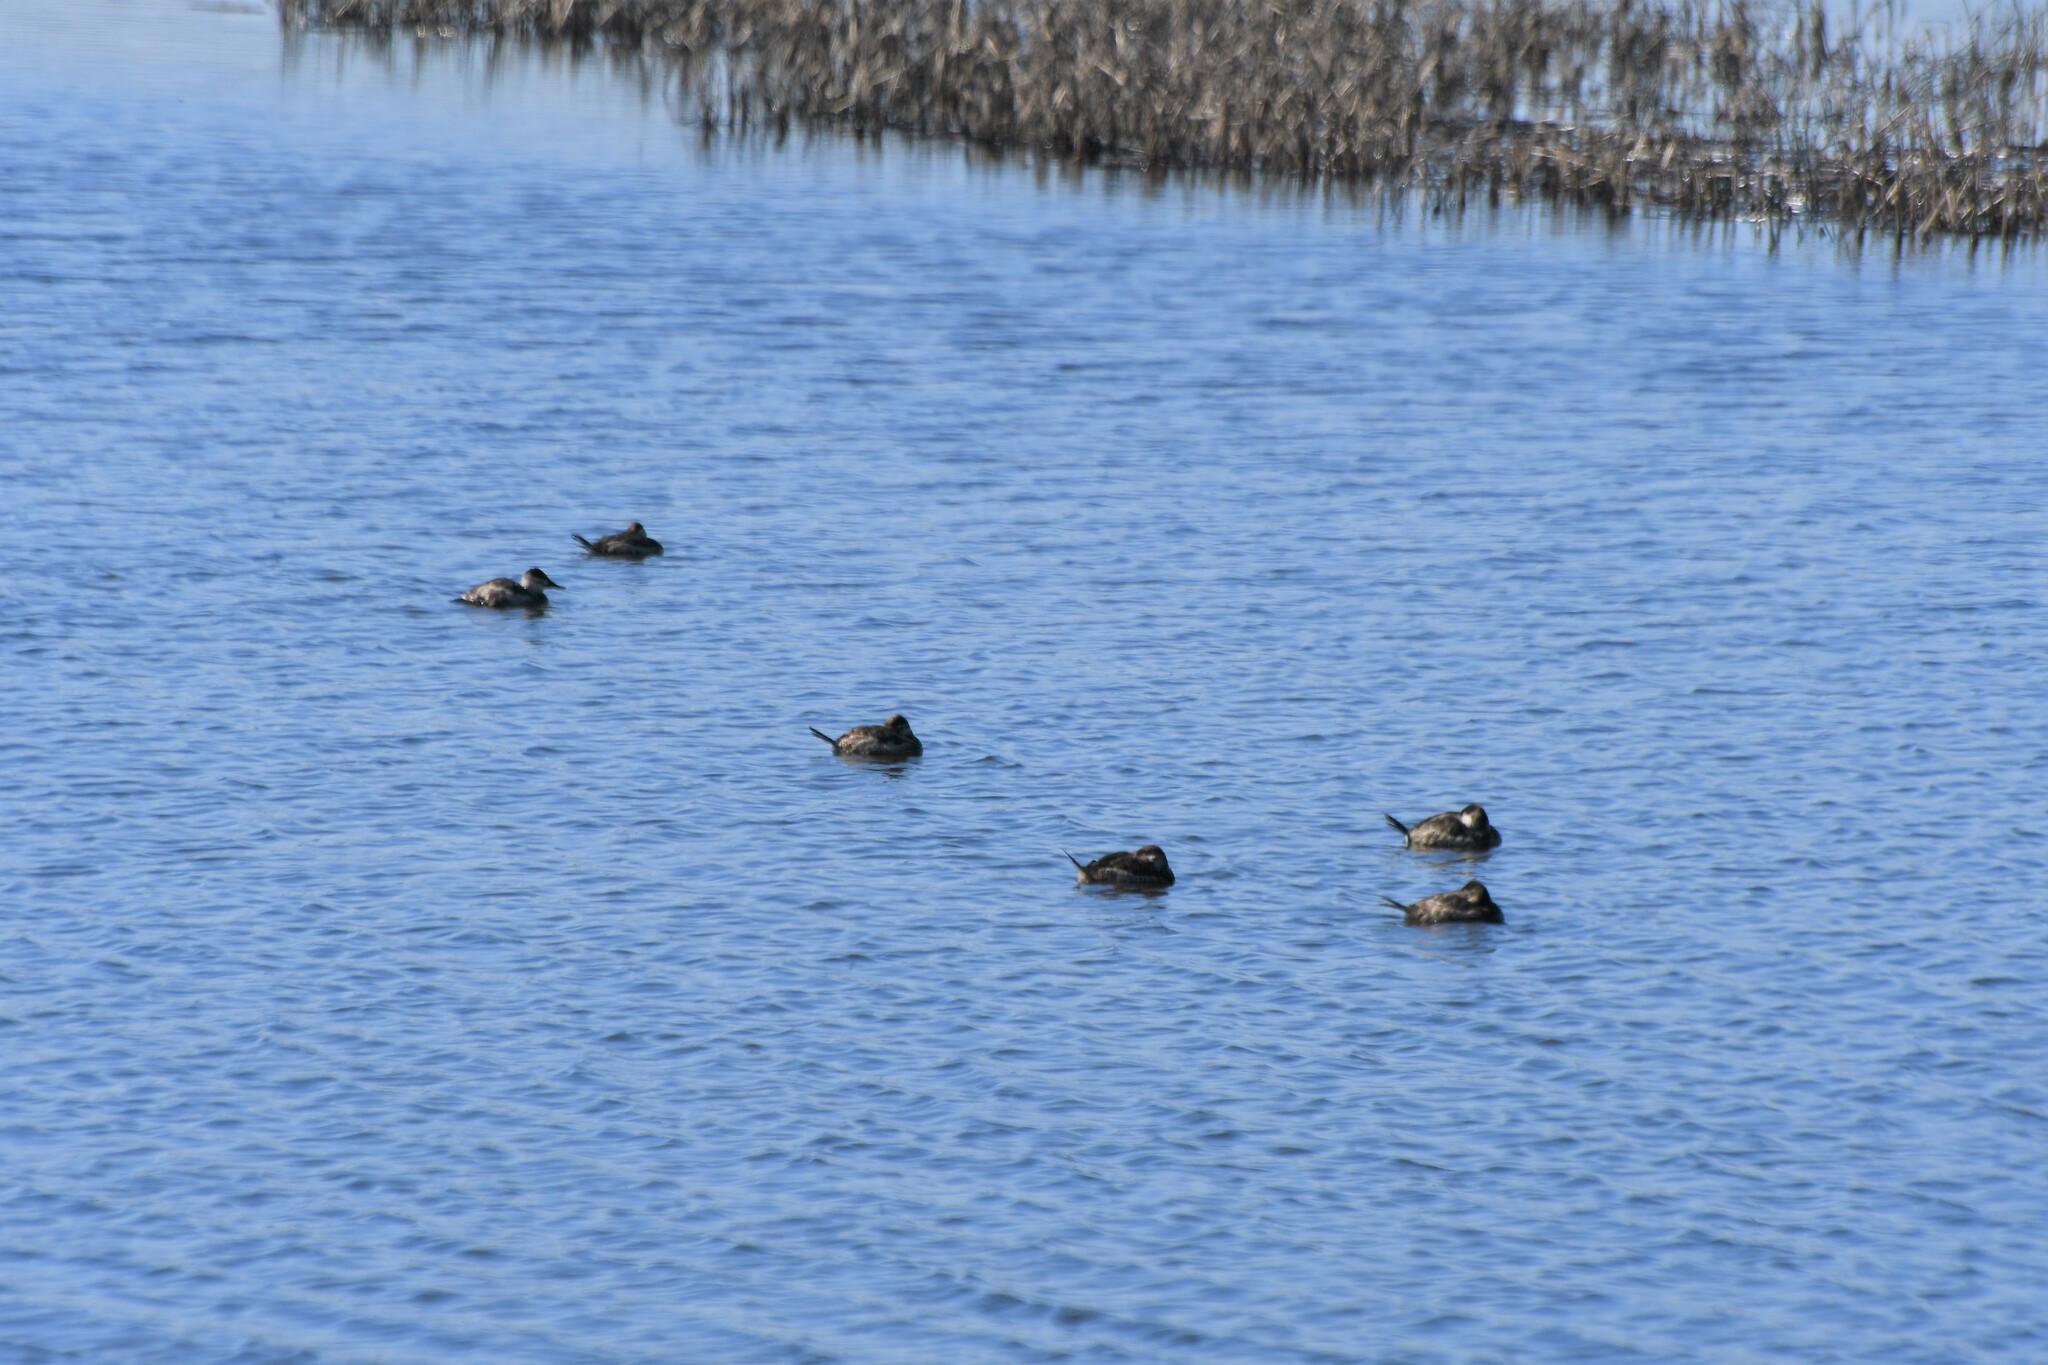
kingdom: Animalia
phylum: Chordata
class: Aves
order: Anseriformes
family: Anatidae
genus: Oxyura
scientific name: Oxyura jamaicensis
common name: Ruddy duck
